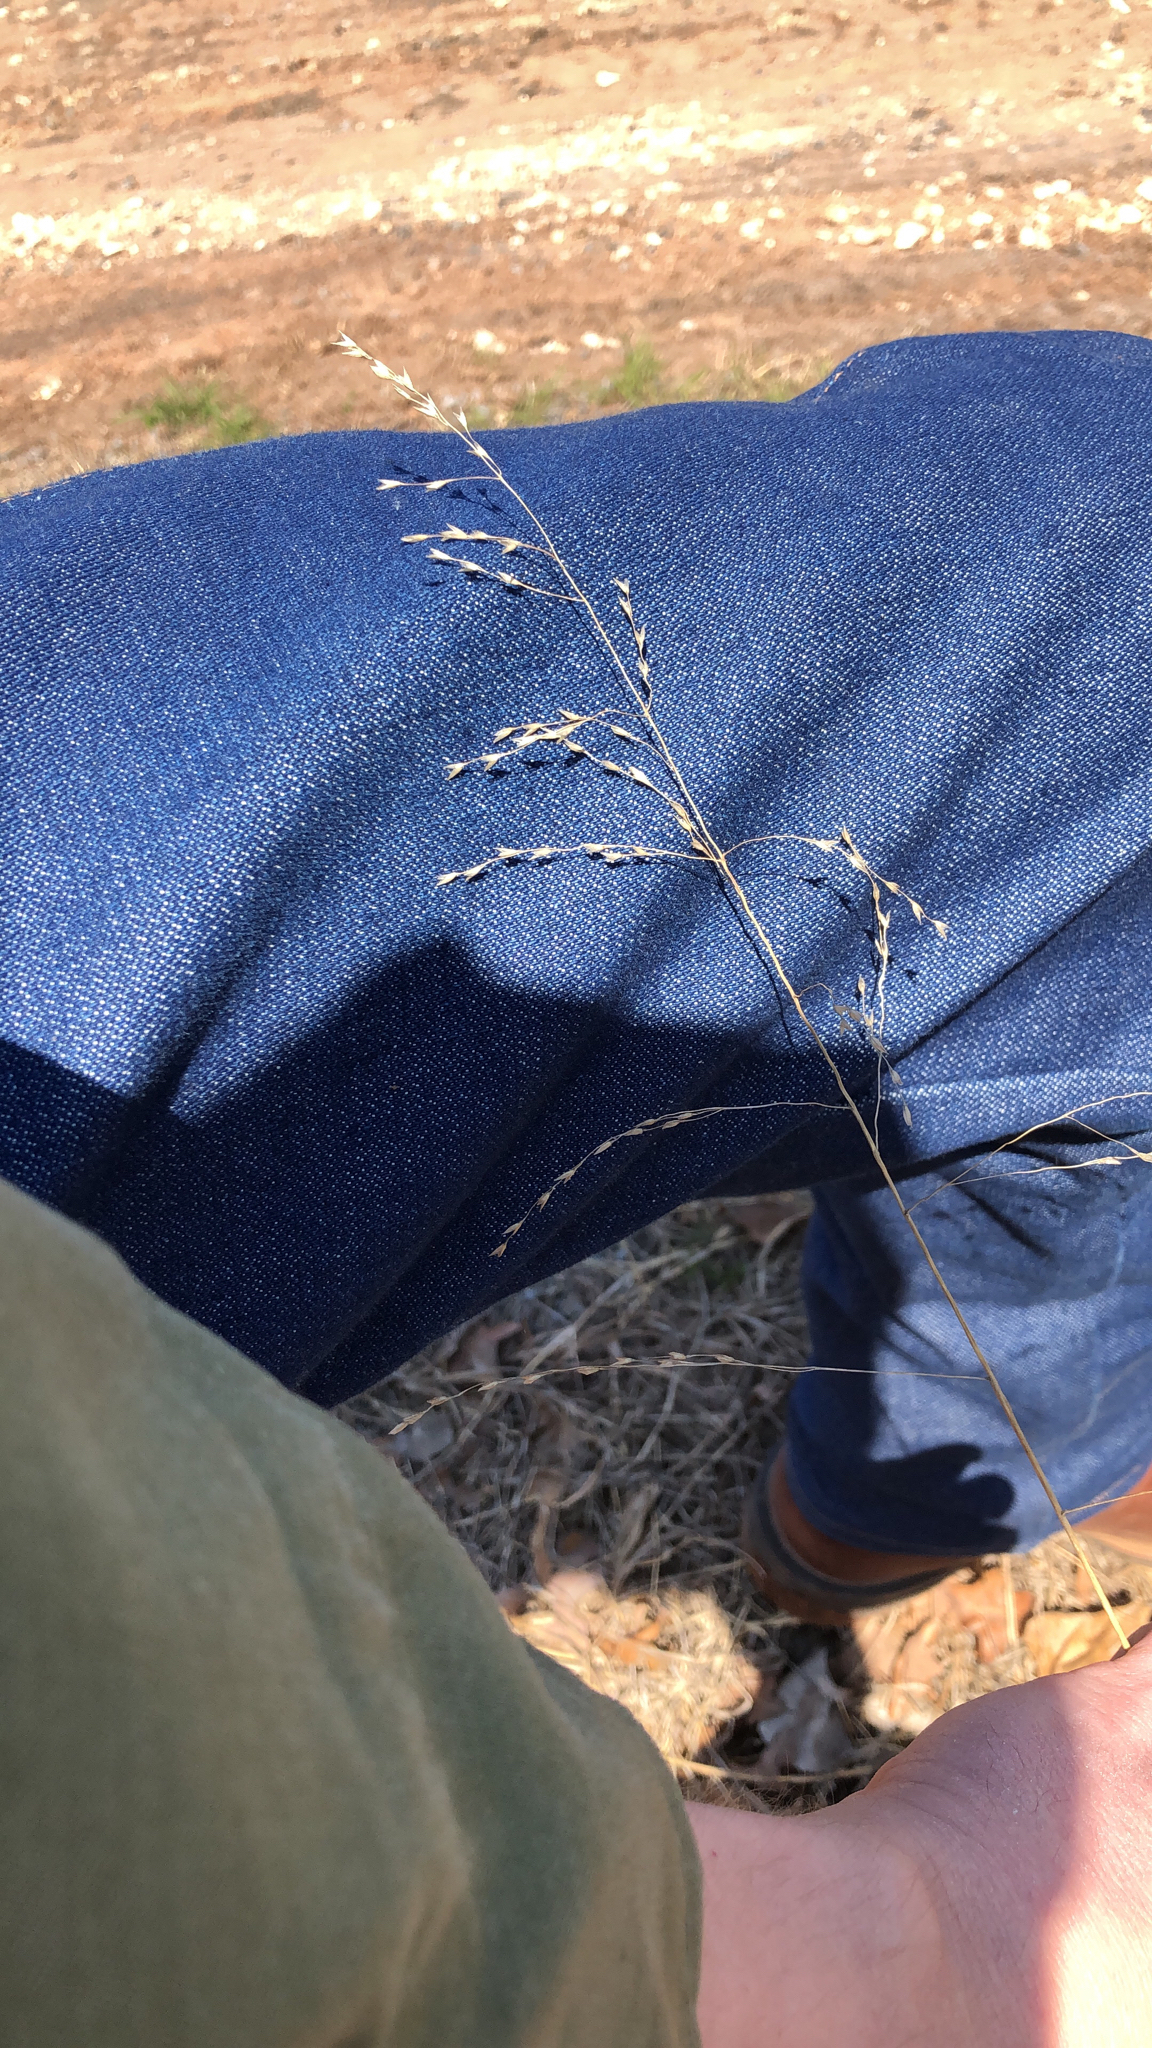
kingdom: Plantae
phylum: Tracheophyta
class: Liliopsida
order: Poales
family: Poaceae
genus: Tridens
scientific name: Tridens flavus
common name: Purpletop
